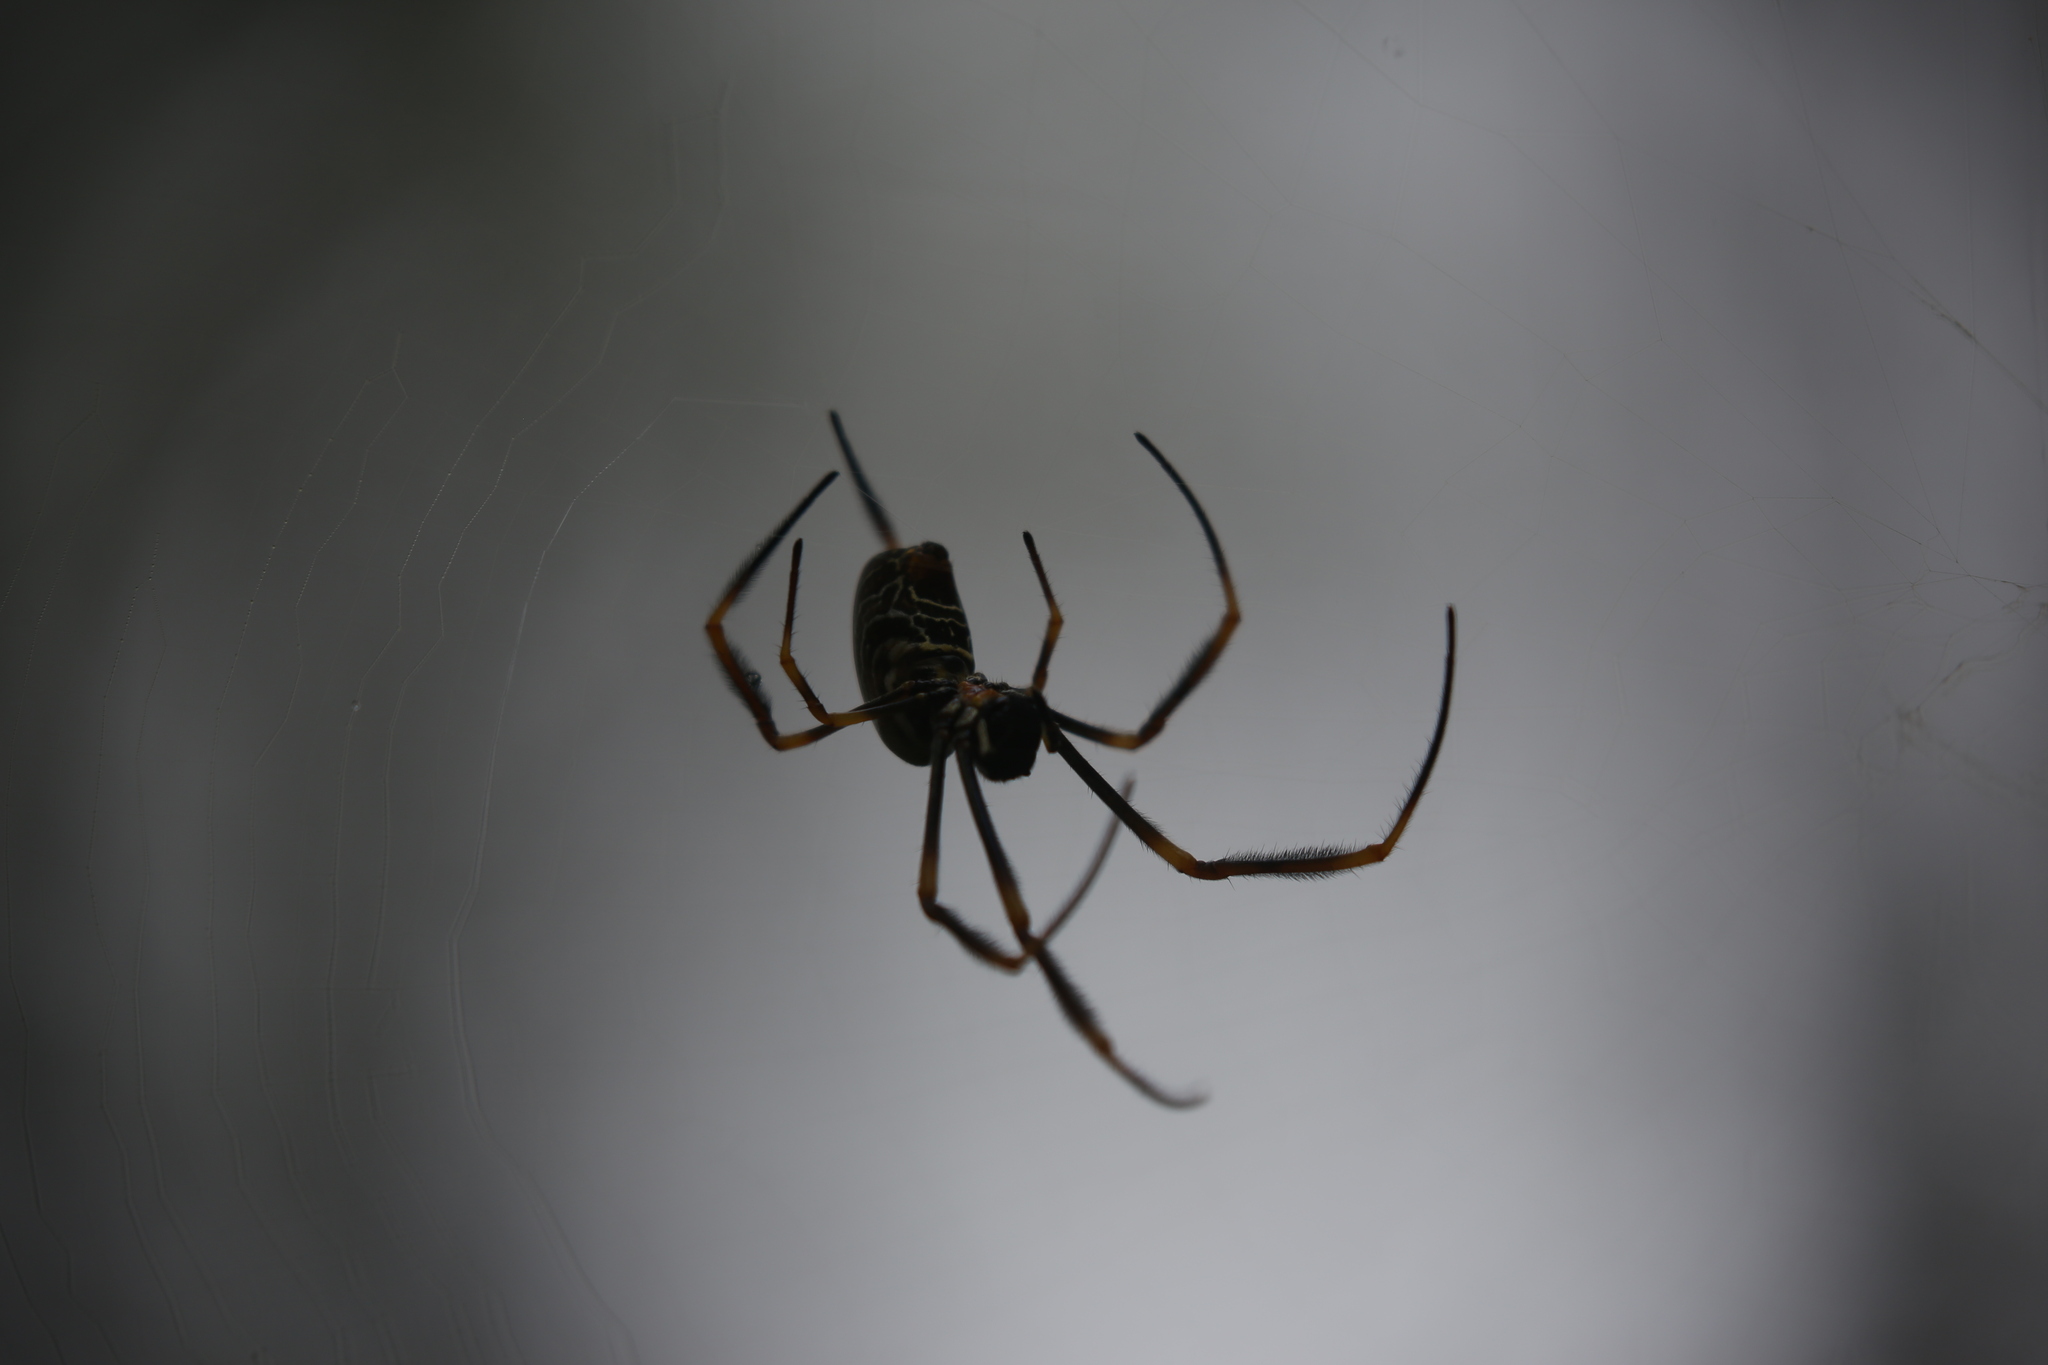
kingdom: Animalia
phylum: Arthropoda
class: Arachnida
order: Araneae
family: Araneidae
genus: Trichonephila
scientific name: Trichonephila plumipes
